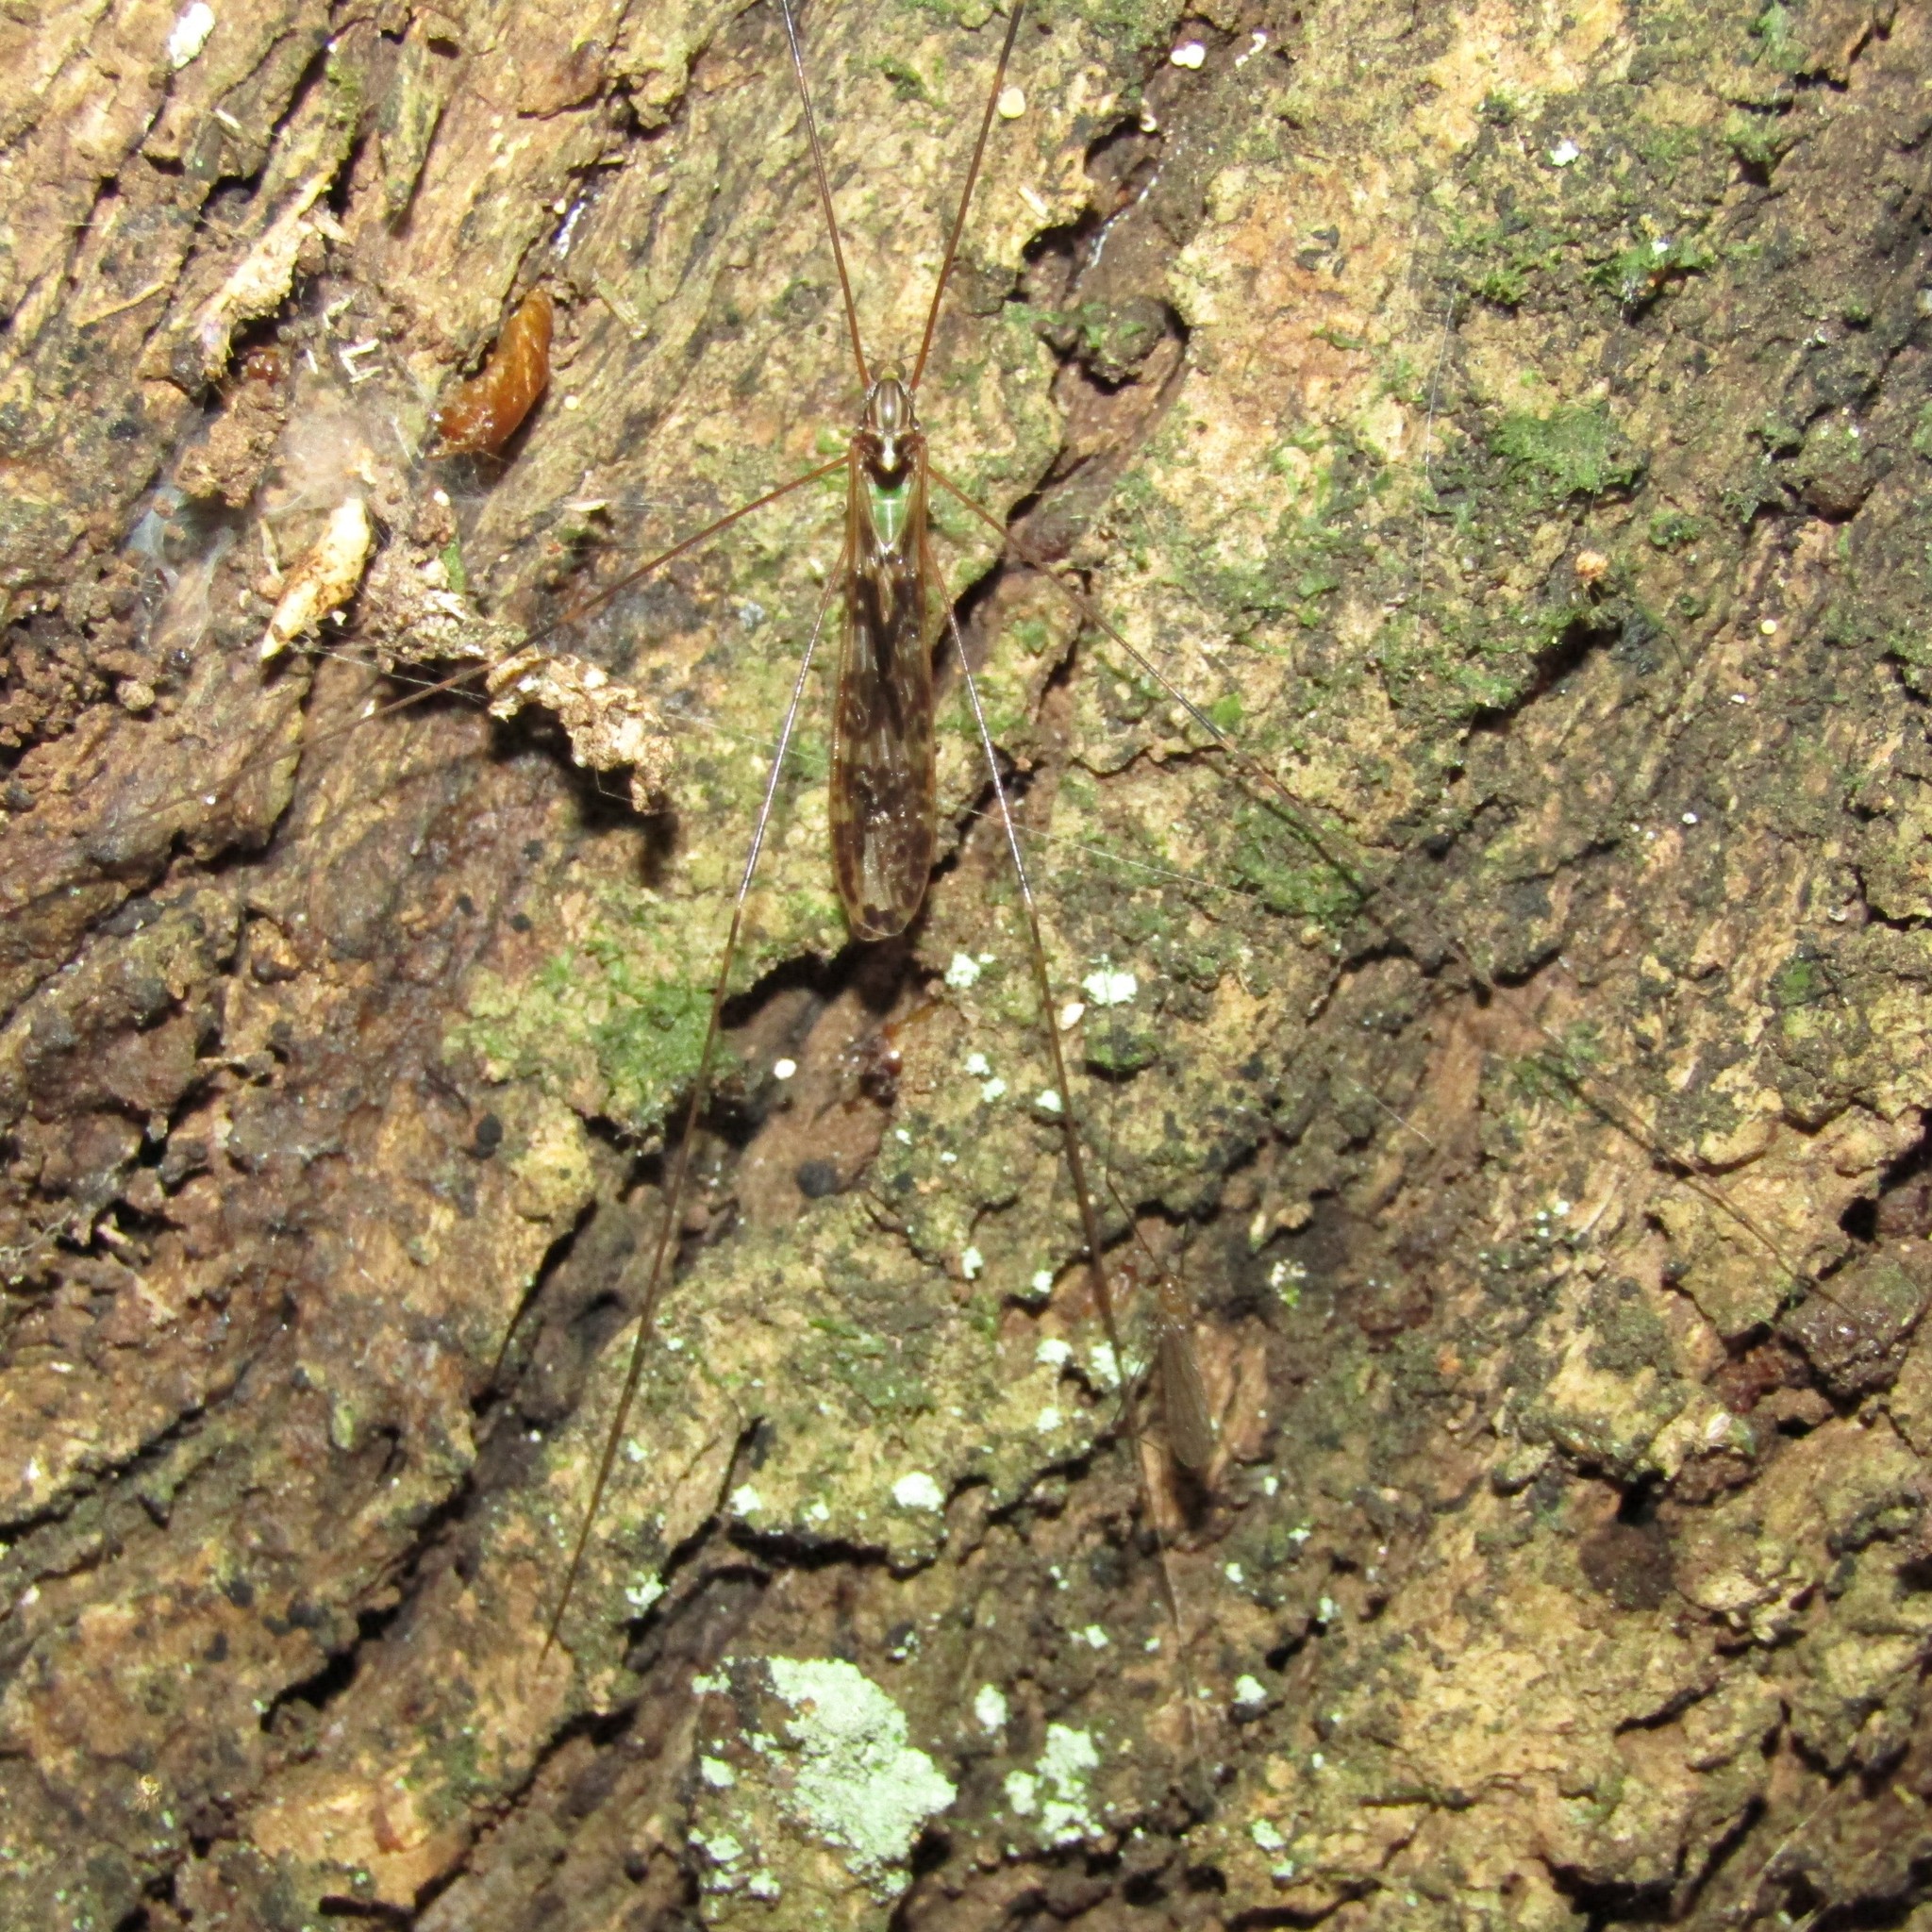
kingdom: Animalia
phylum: Arthropoda
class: Insecta
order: Diptera
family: Limoniidae
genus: Discobola
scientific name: Discobola dohrni
